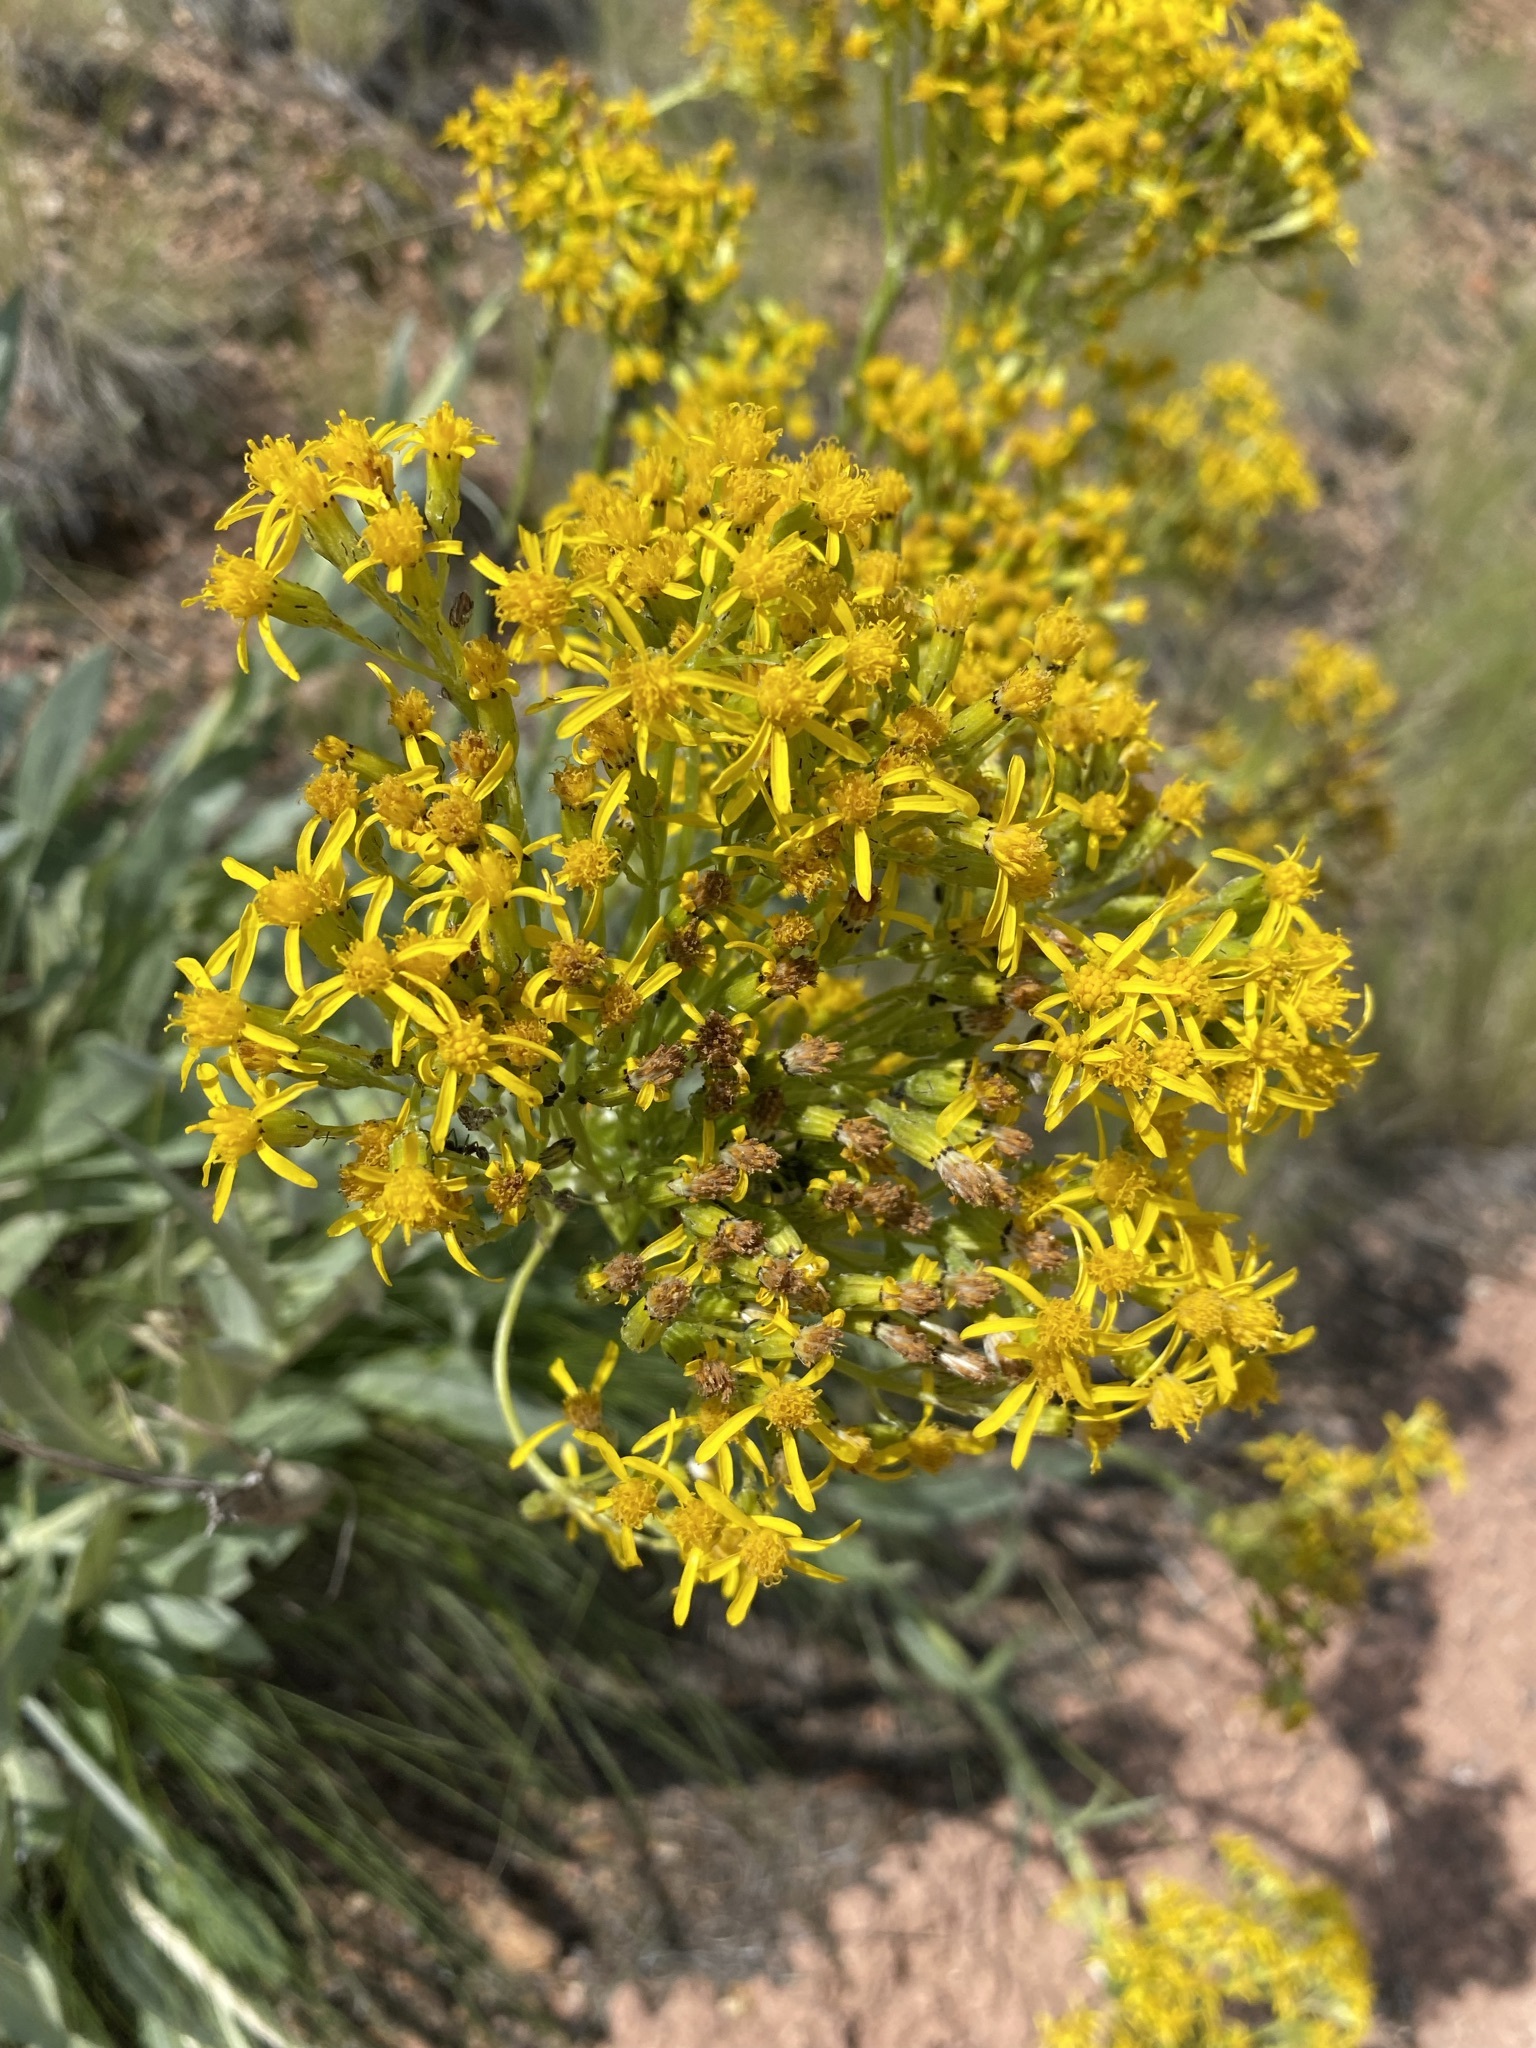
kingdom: Plantae
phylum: Tracheophyta
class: Magnoliopsida
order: Asterales
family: Asteraceae
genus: Senecio
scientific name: Senecio atratus
